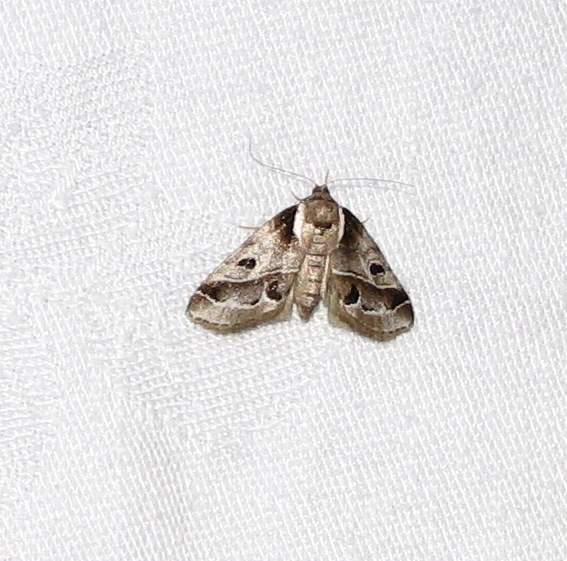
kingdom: Animalia
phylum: Arthropoda
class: Insecta
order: Lepidoptera
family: Nolidae
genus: Baileya
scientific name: Baileya doubledayi
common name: Doubleday's baileya moth
